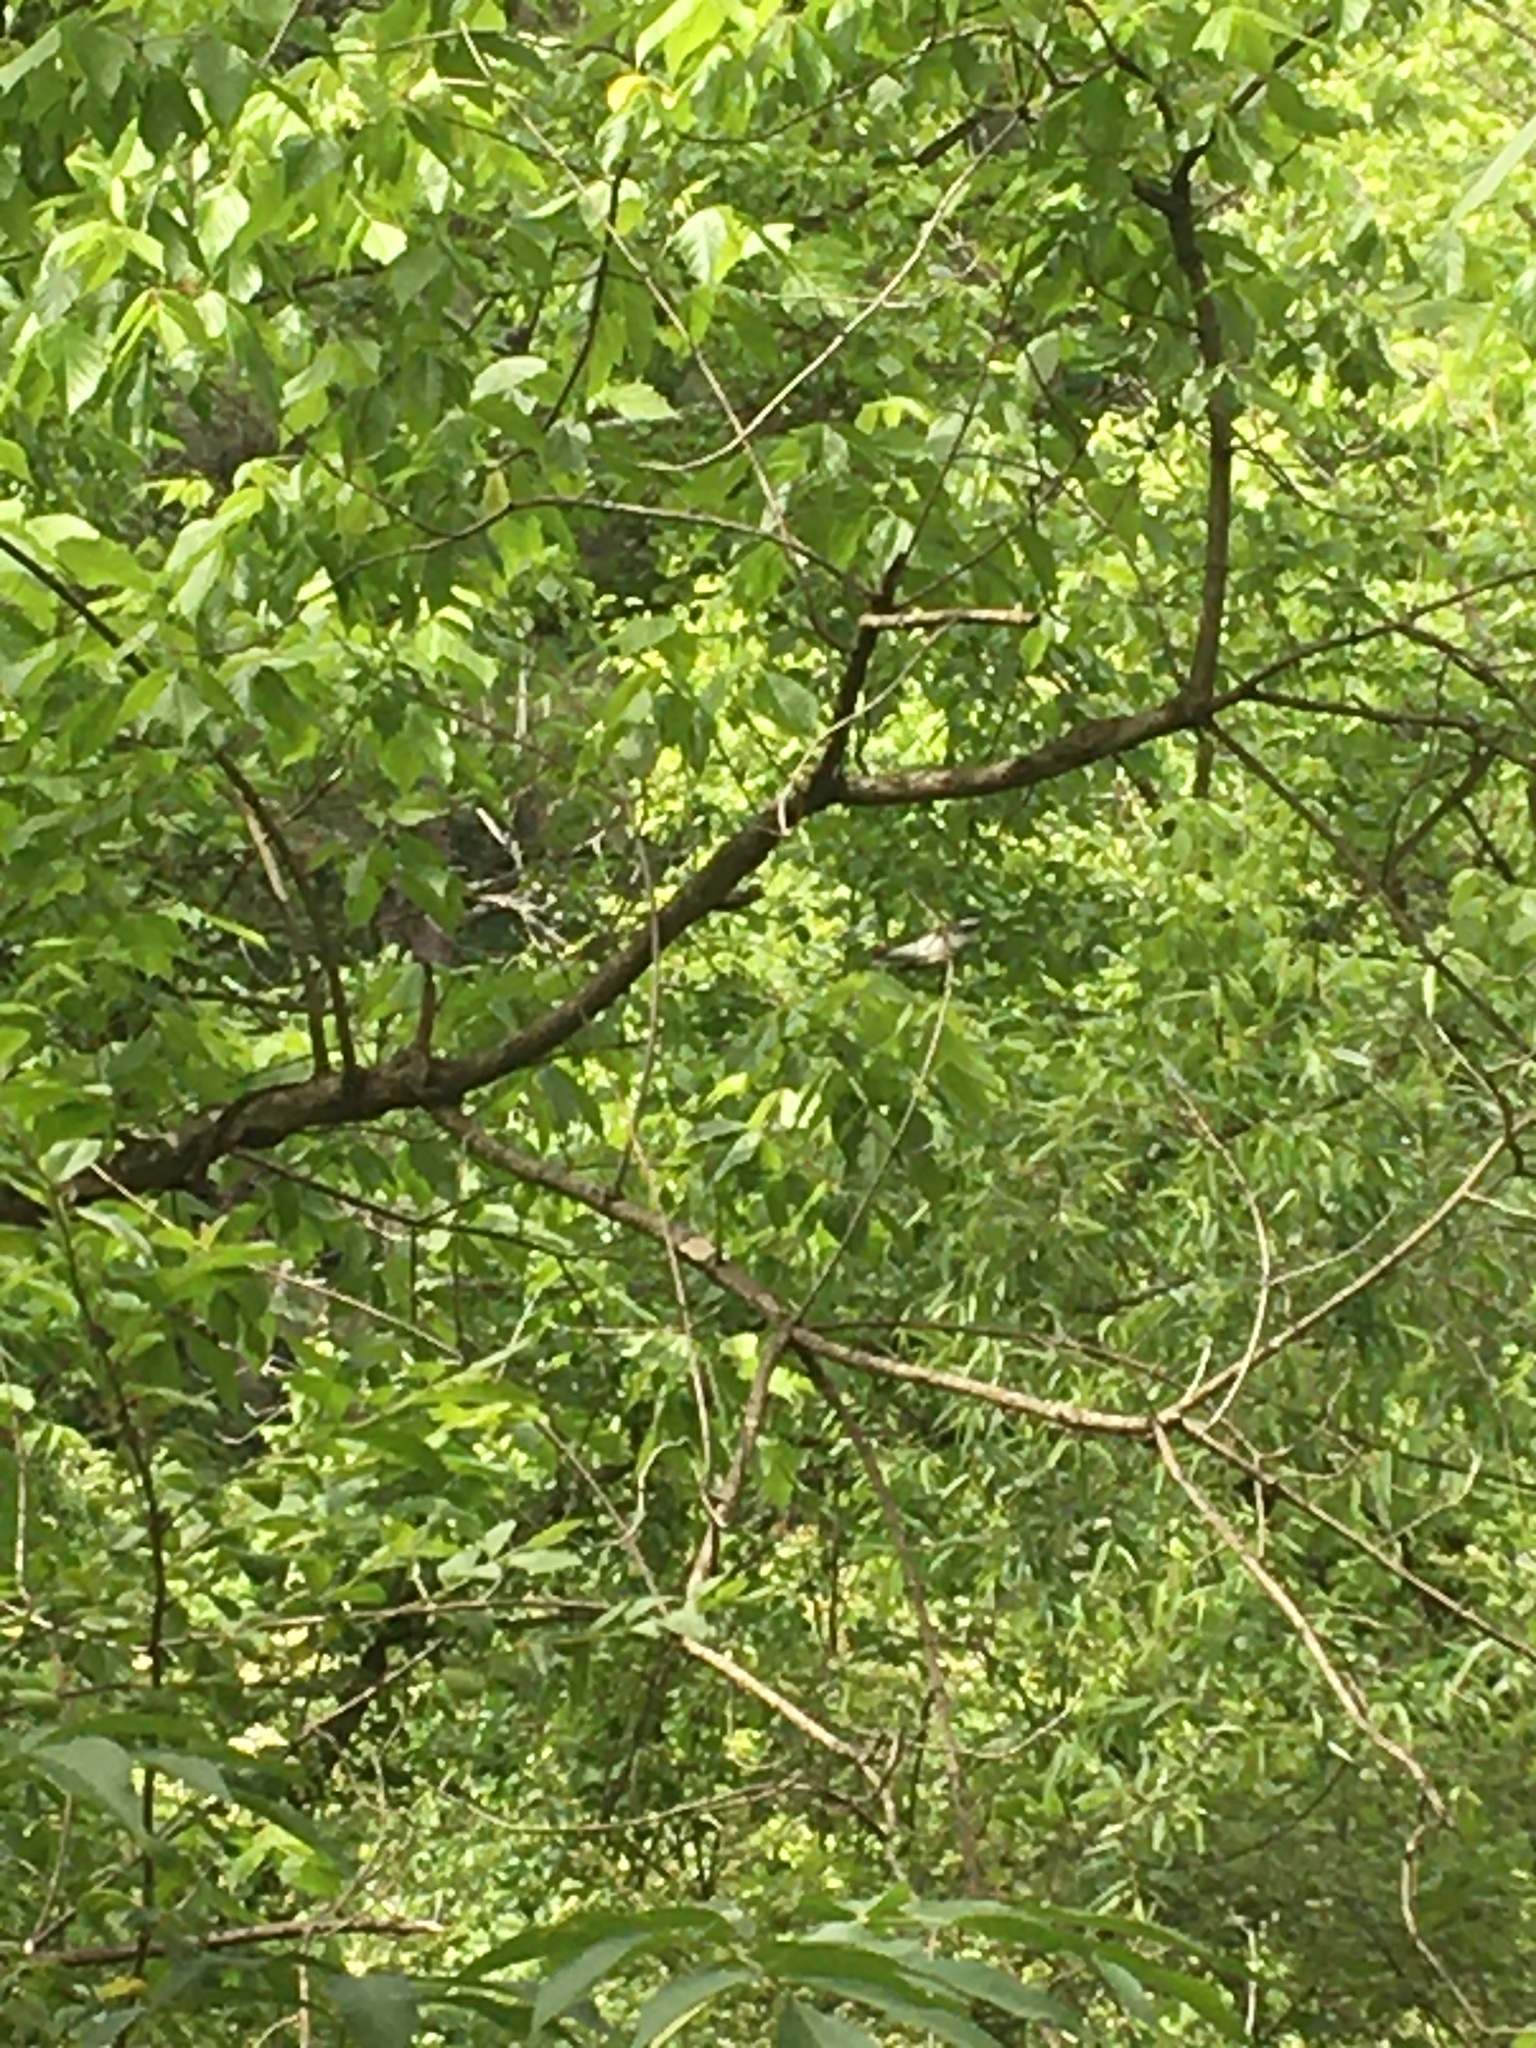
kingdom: Animalia
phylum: Chordata
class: Aves
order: Passeriformes
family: Parulidae
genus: Setophaga
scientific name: Setophaga striata
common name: Blackpoll warbler
